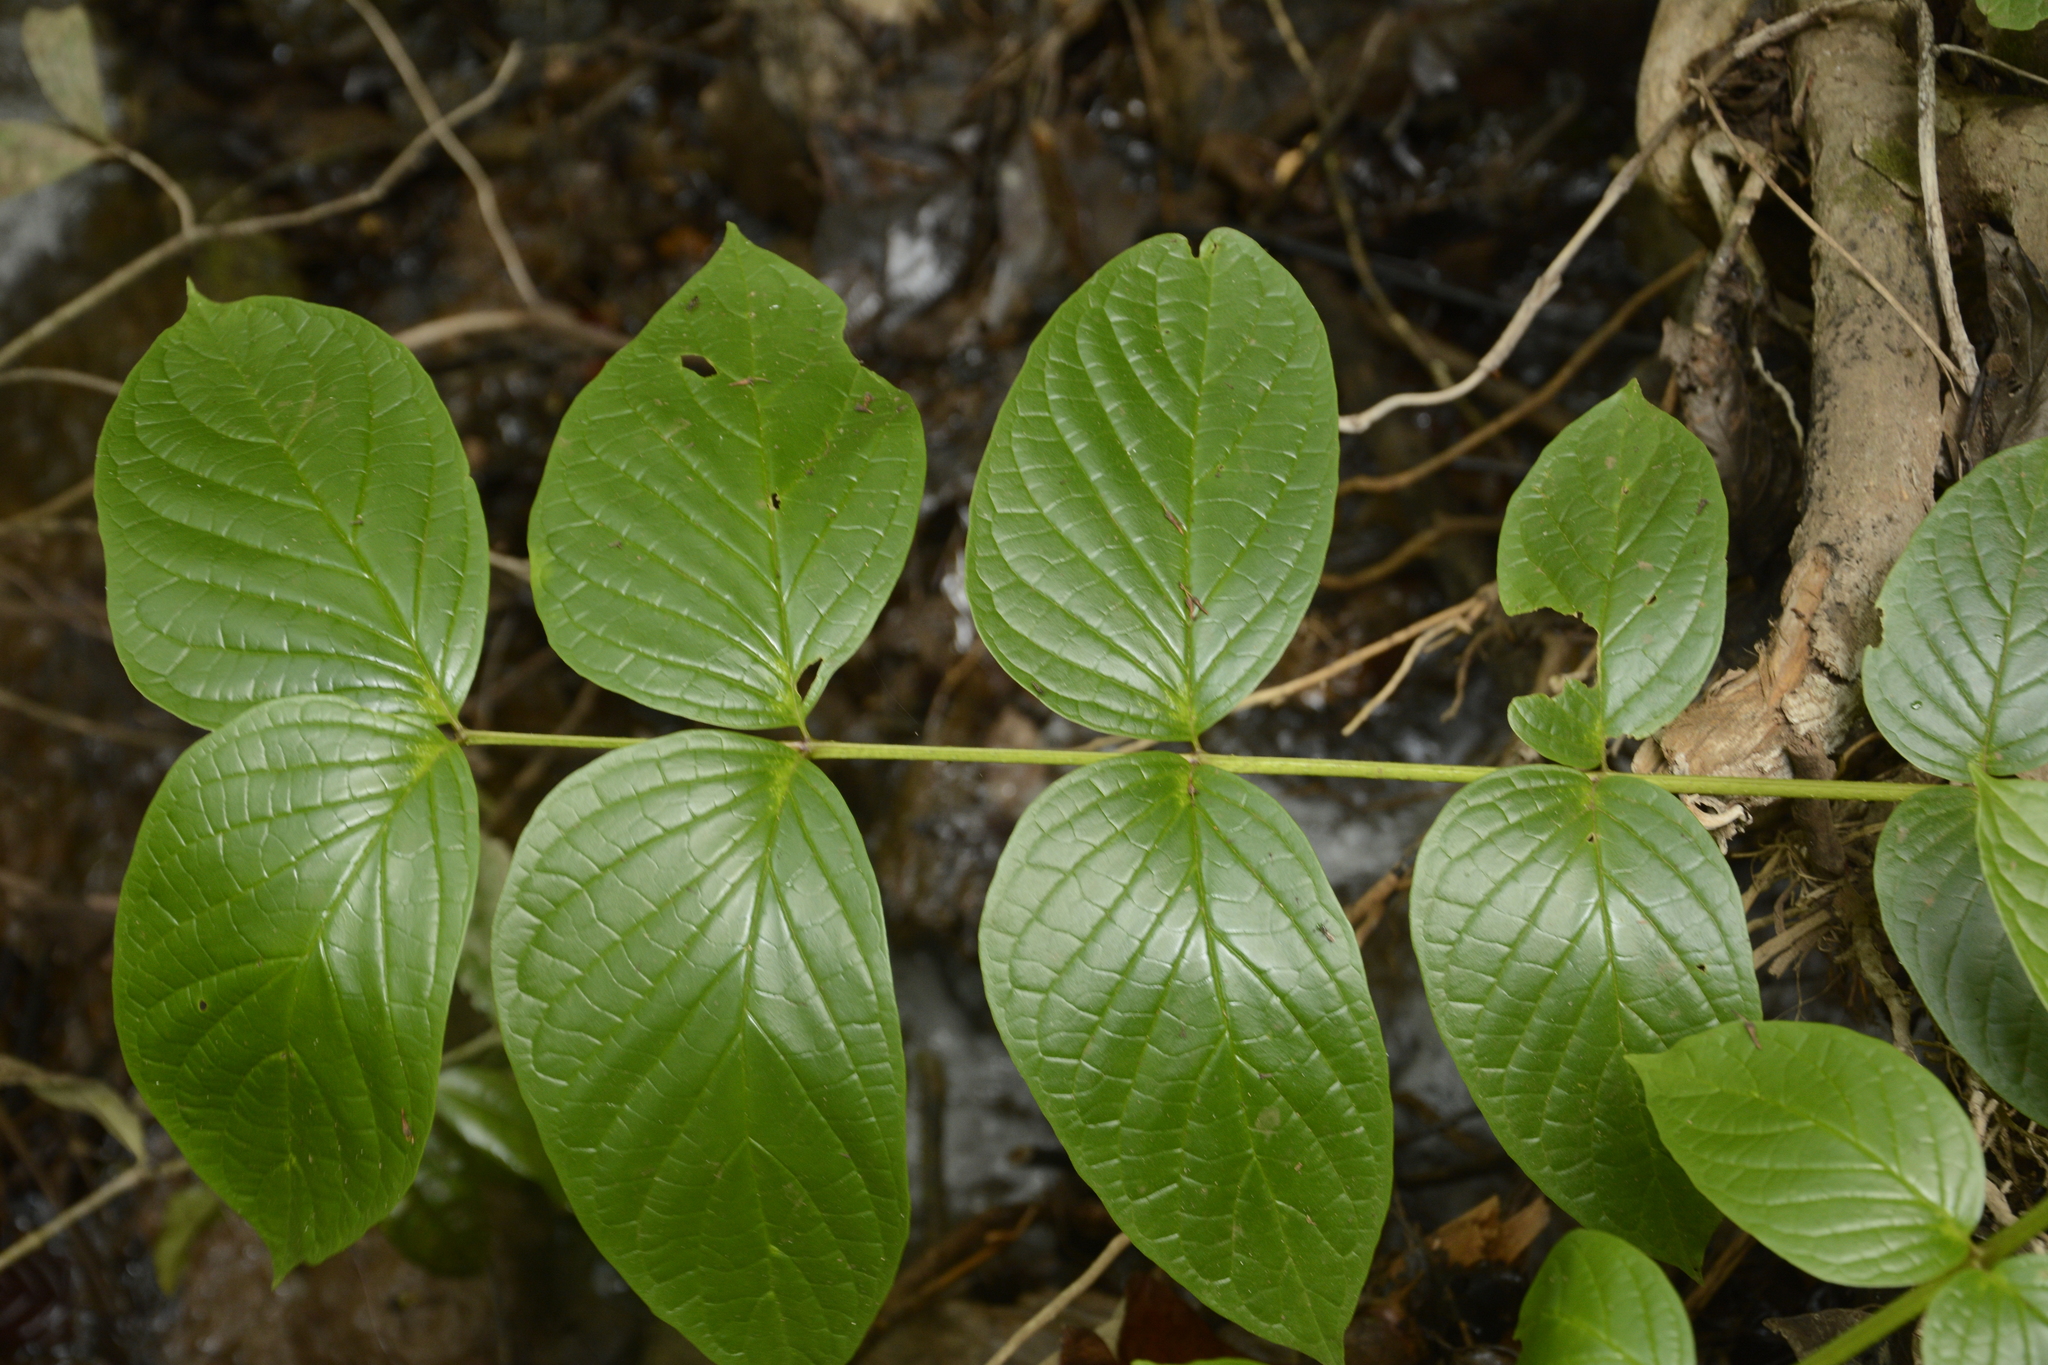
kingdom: Plantae
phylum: Tracheophyta
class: Magnoliopsida
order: Lamiales
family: Bignoniaceae
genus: Pajanelia
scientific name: Pajanelia longifolia
